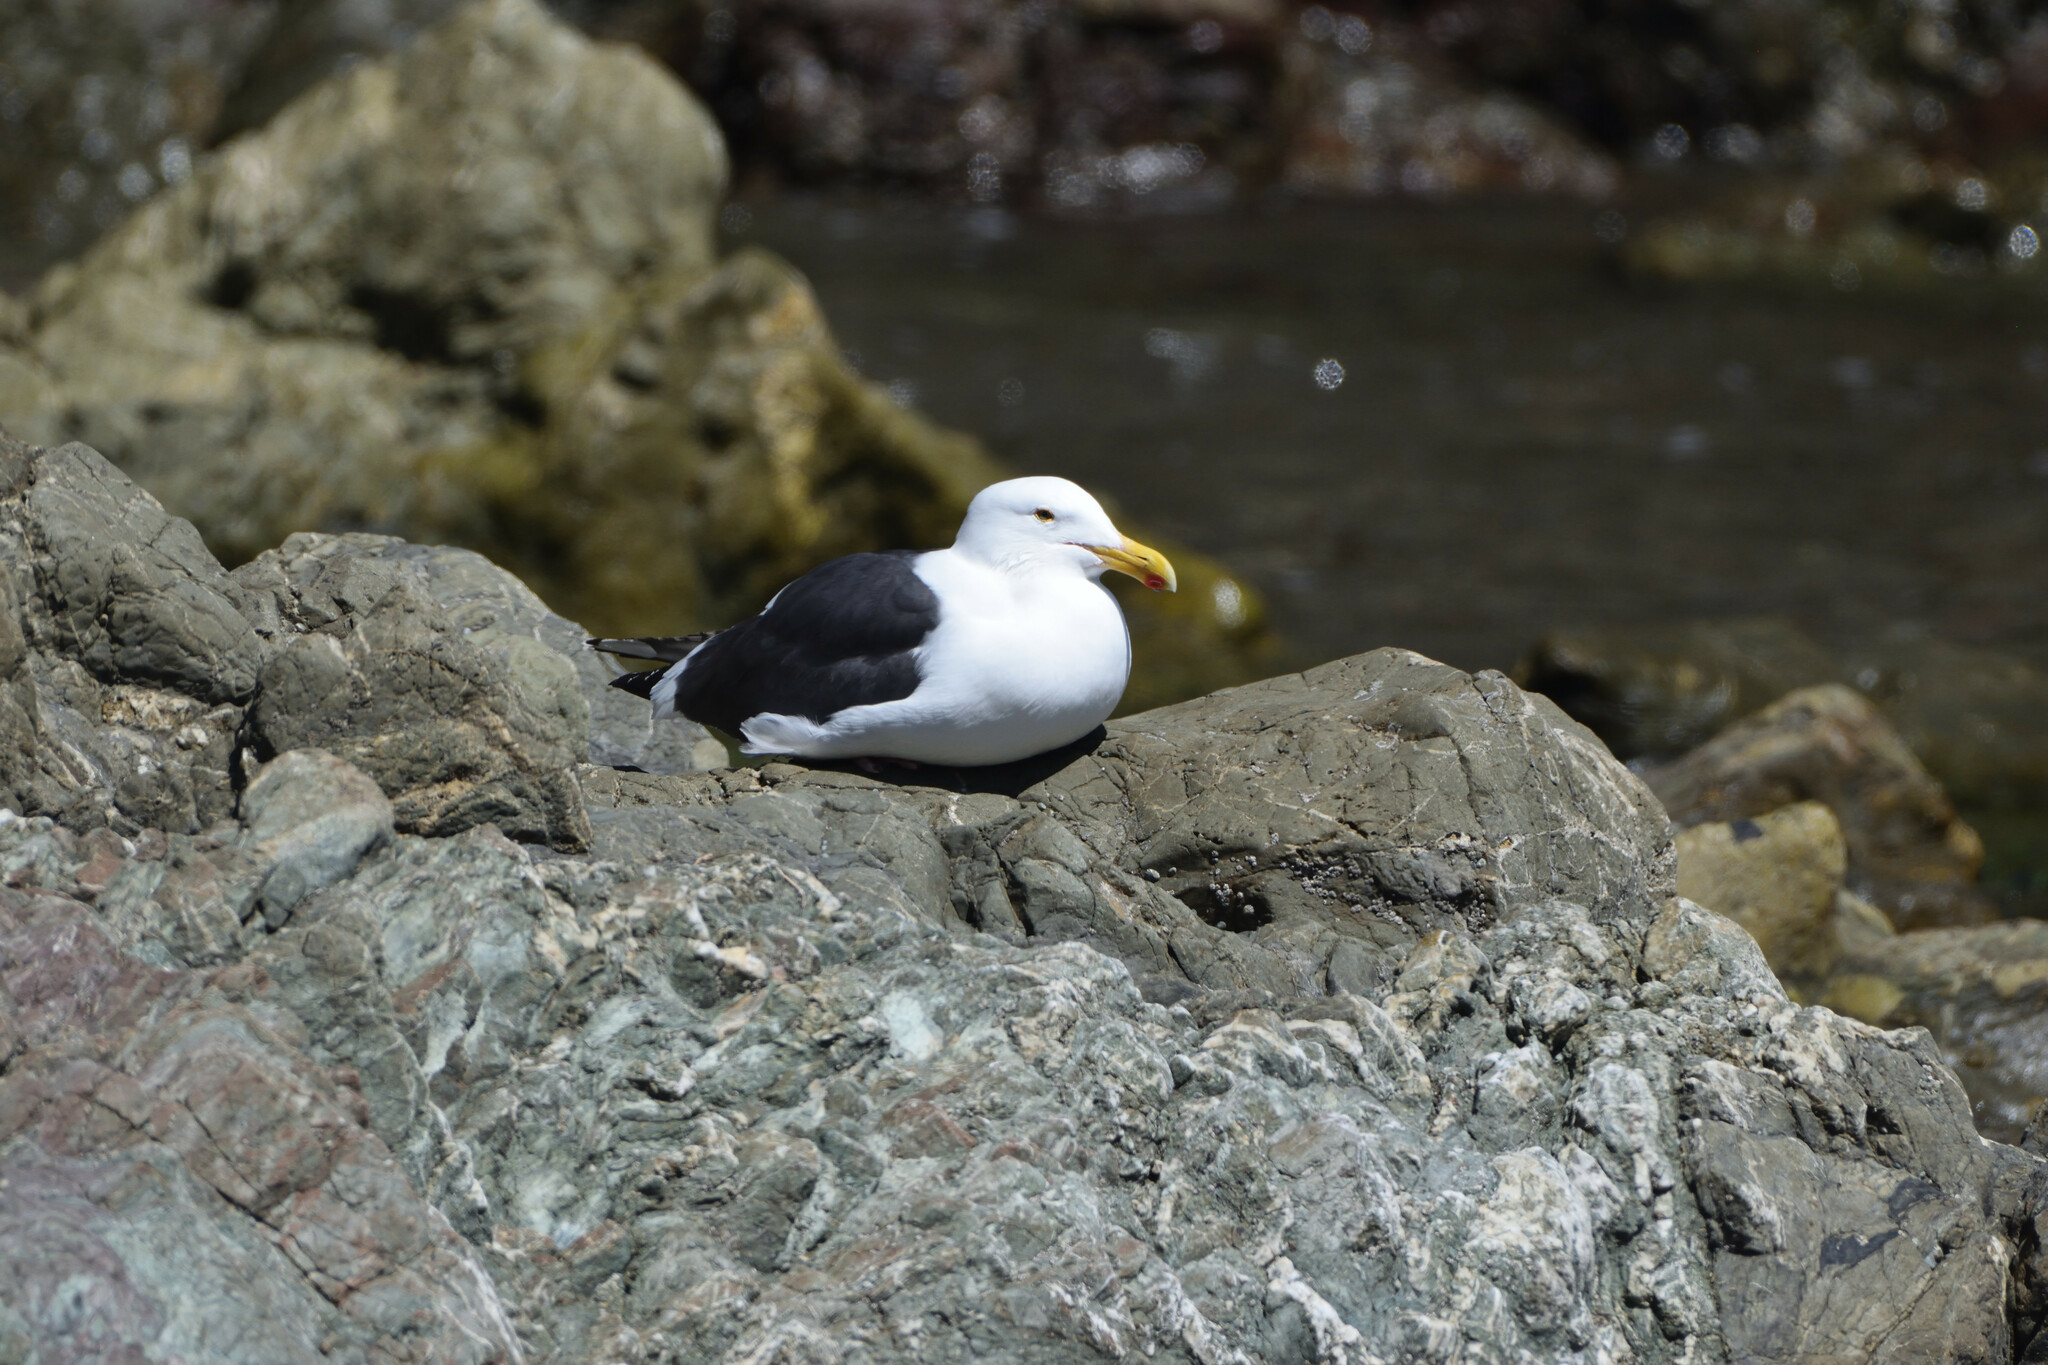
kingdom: Animalia
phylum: Chordata
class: Aves
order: Charadriiformes
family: Laridae
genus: Larus
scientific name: Larus occidentalis
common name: Western gull
